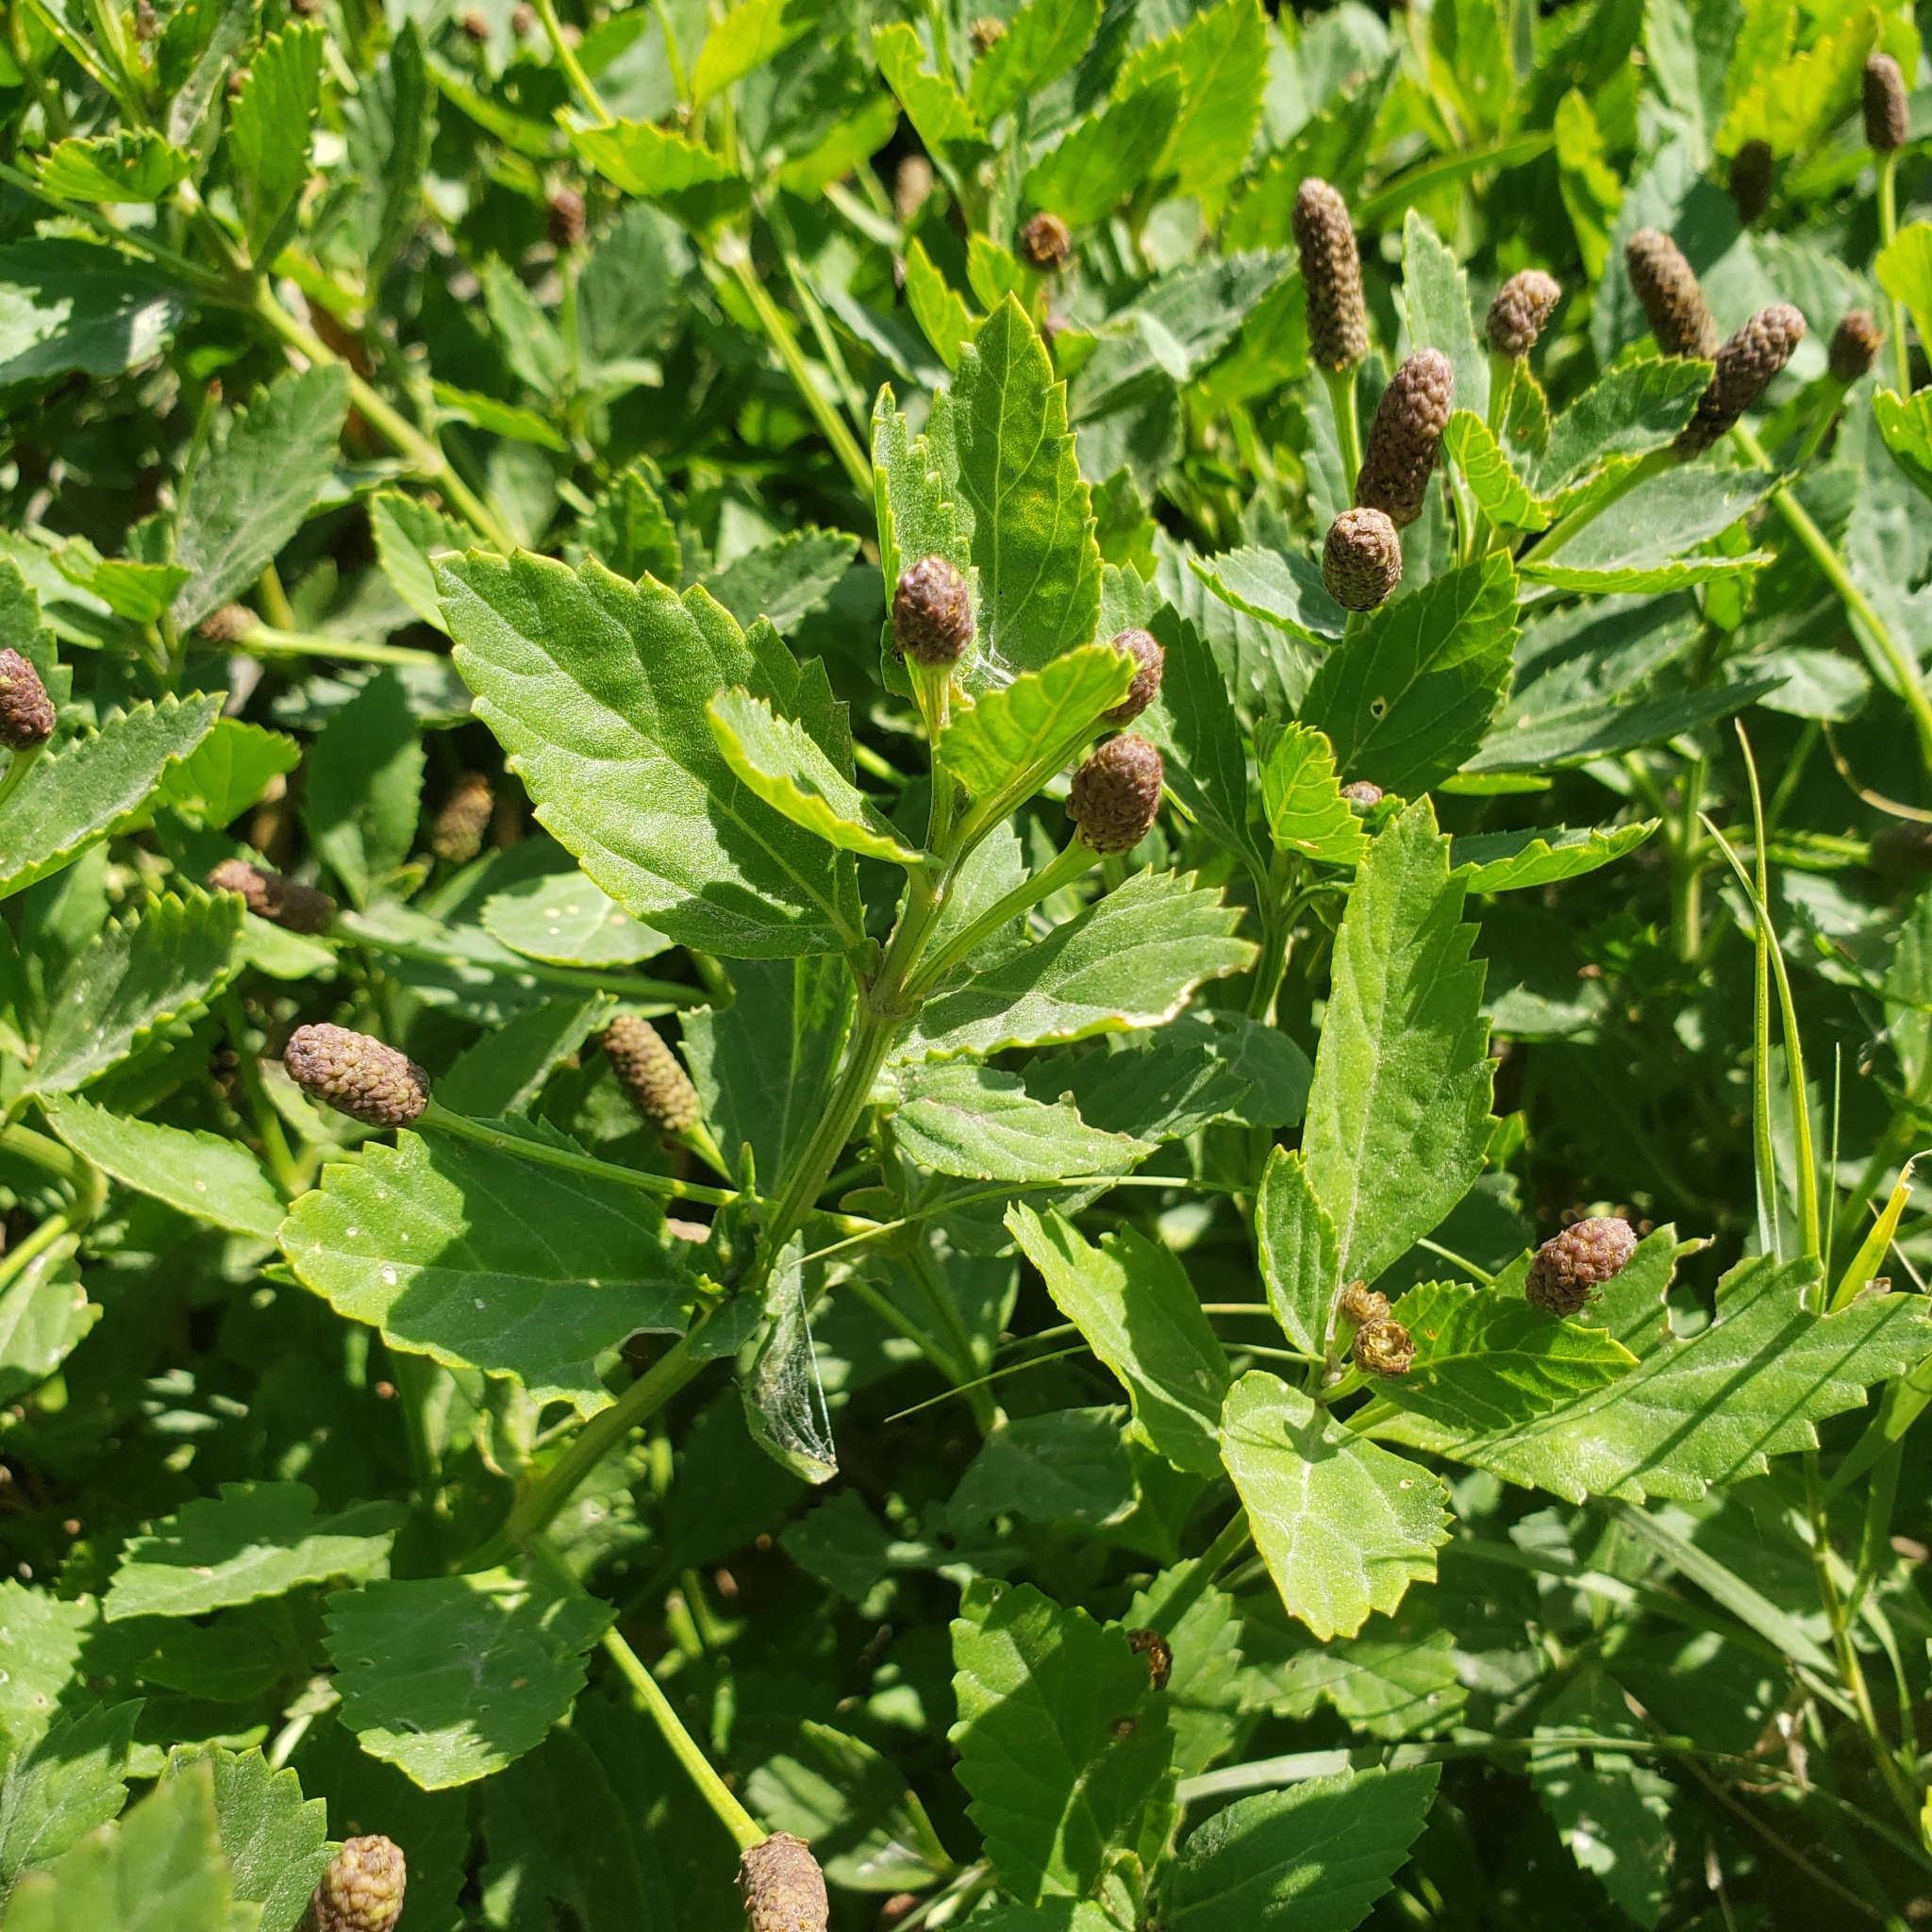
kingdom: Plantae
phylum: Tracheophyta
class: Magnoliopsida
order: Lamiales
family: Verbenaceae
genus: Phyla
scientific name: Phyla lanceolata
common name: Northern fogfruit
